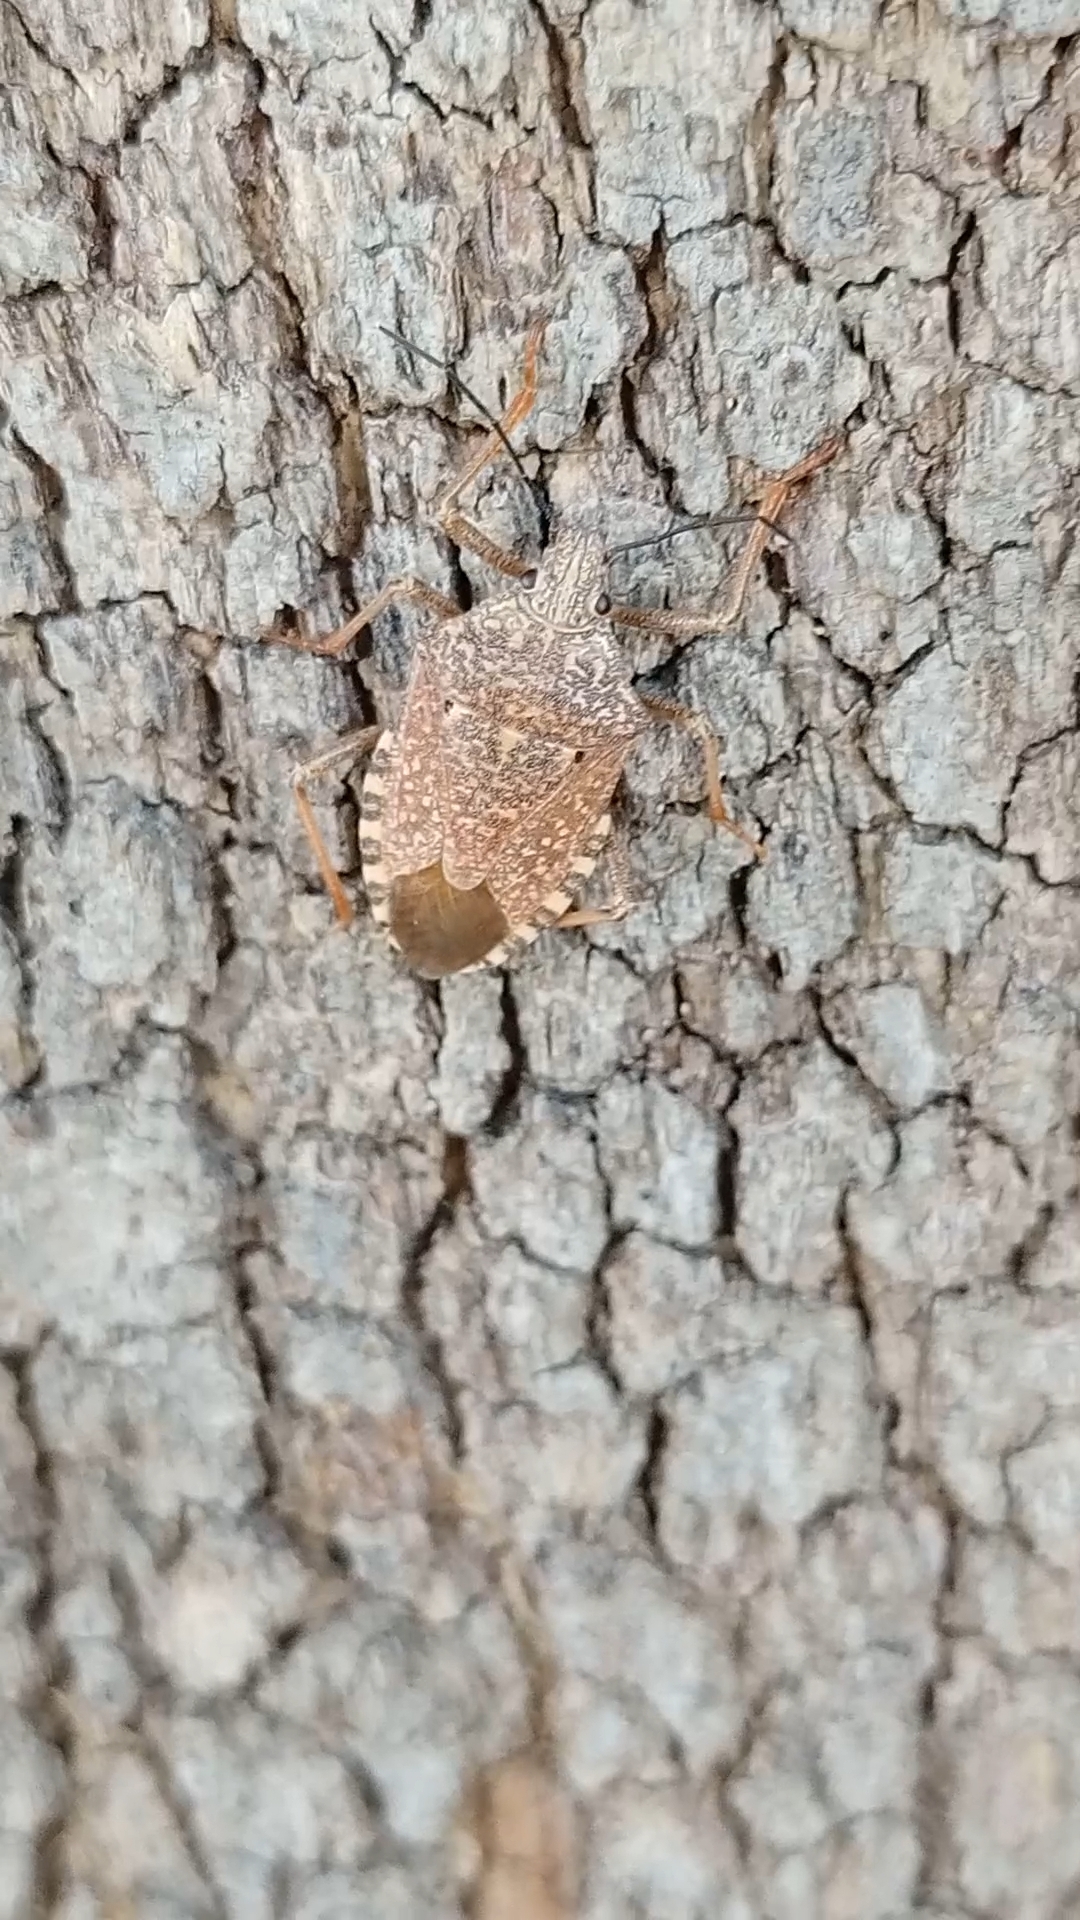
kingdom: Animalia
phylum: Arthropoda
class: Insecta
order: Hemiptera
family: Pentatomidae
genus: Apodiphus
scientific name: Apodiphus
